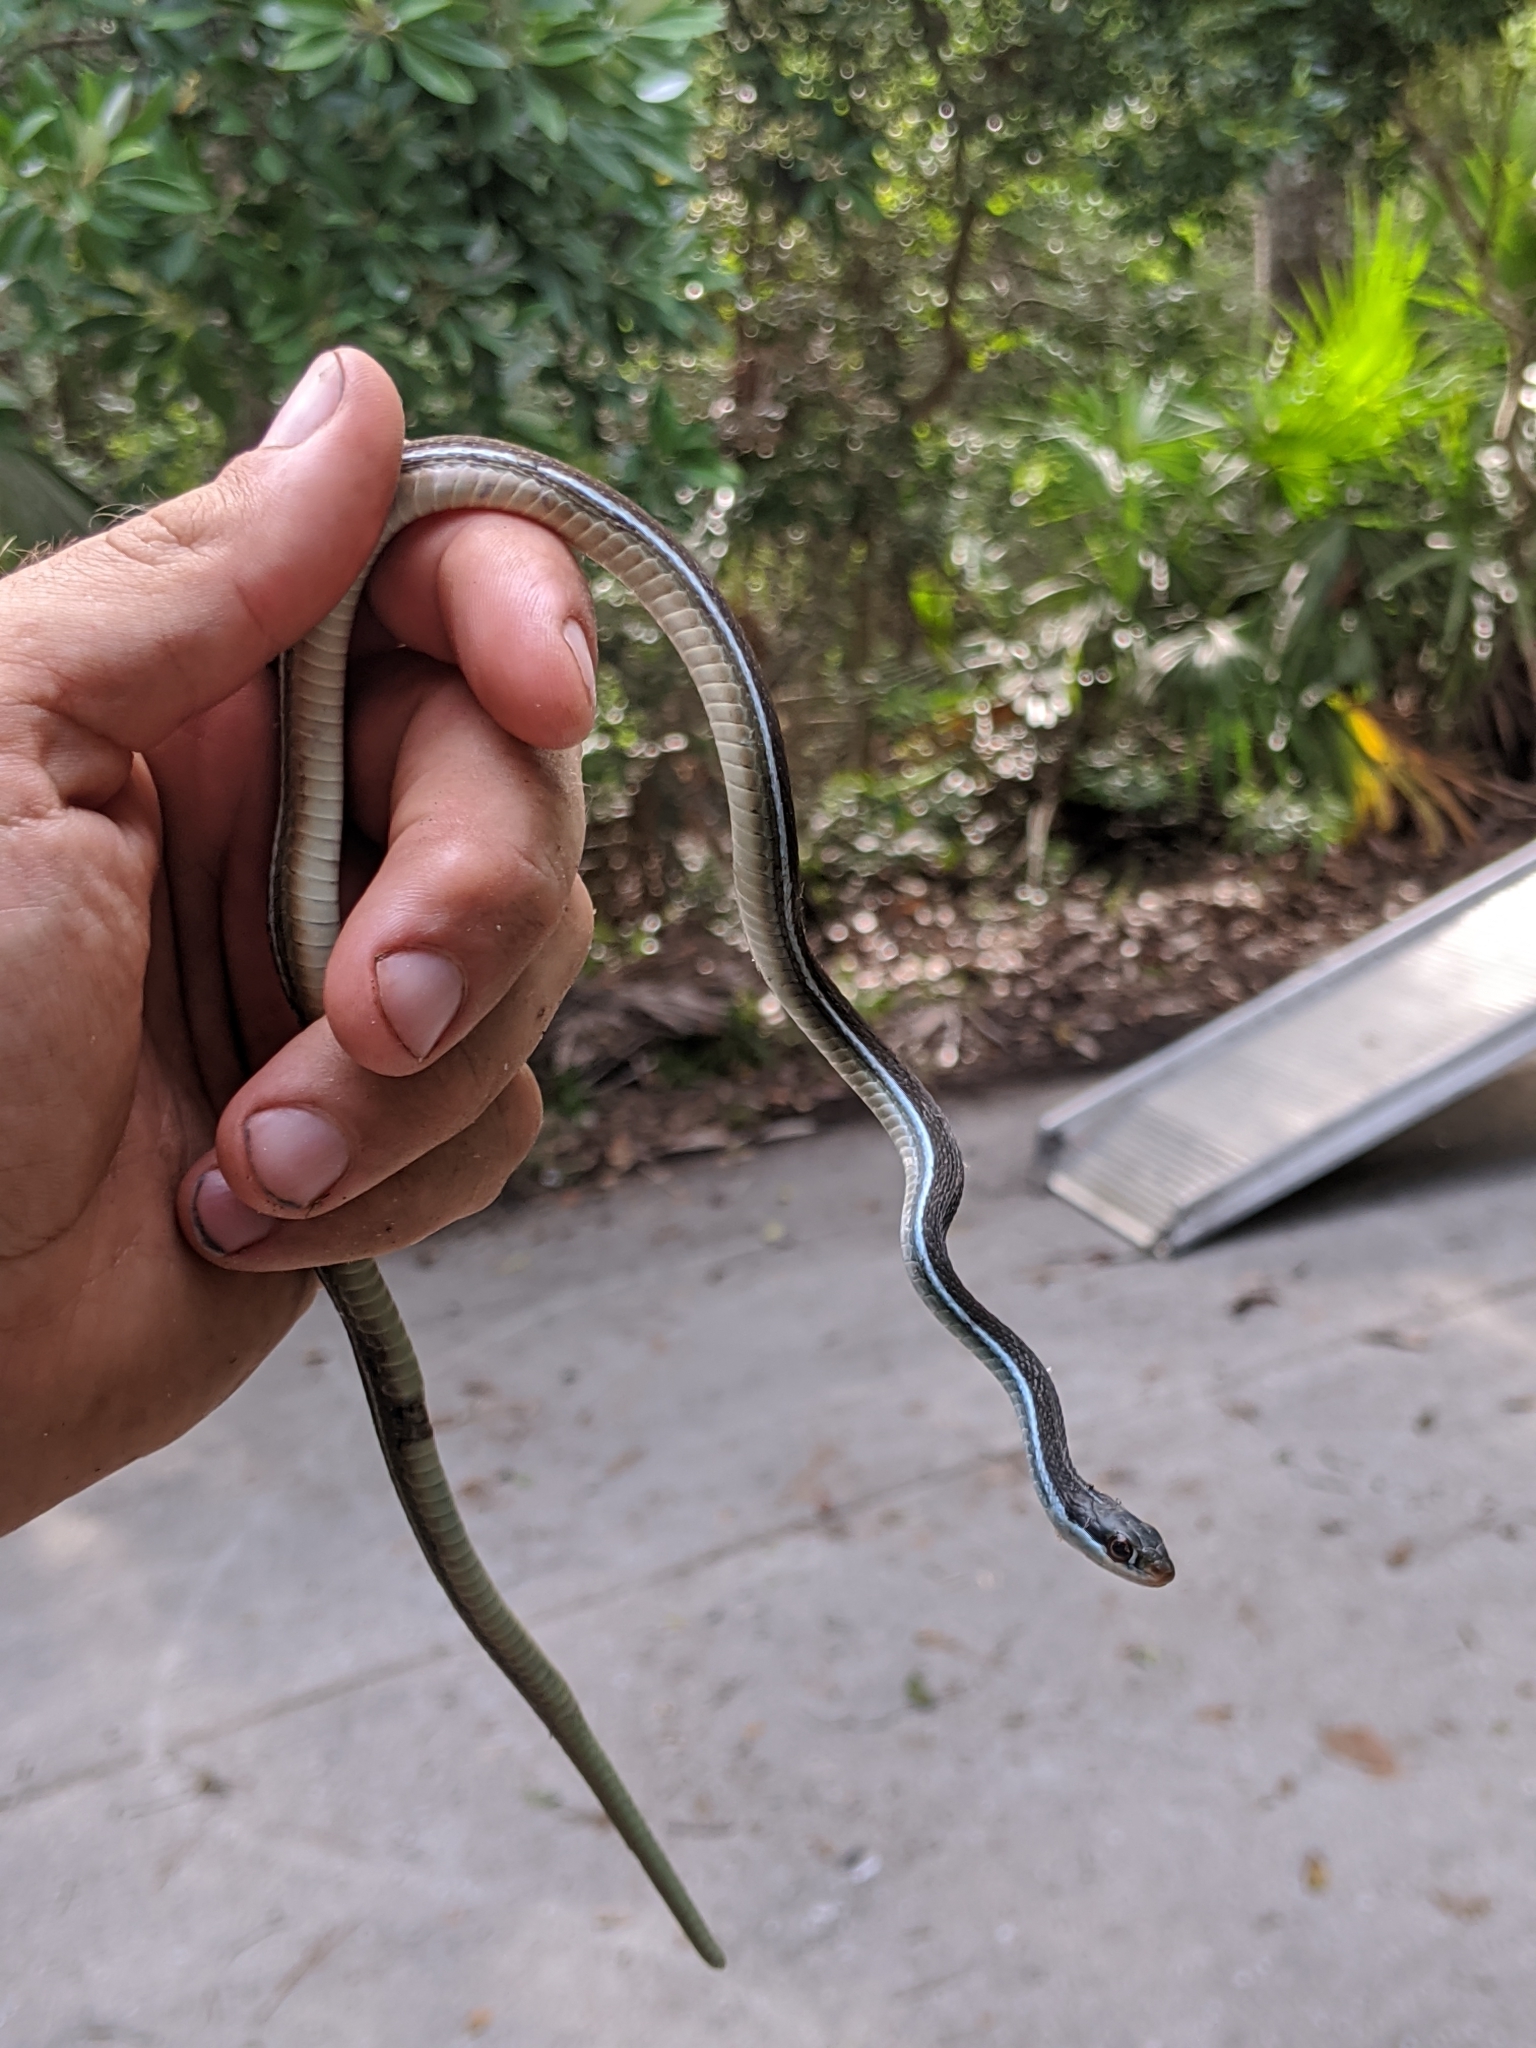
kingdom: Animalia
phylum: Chordata
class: Squamata
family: Colubridae
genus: Thamnophis
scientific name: Thamnophis saurita
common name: Eastern ribbonsnake
